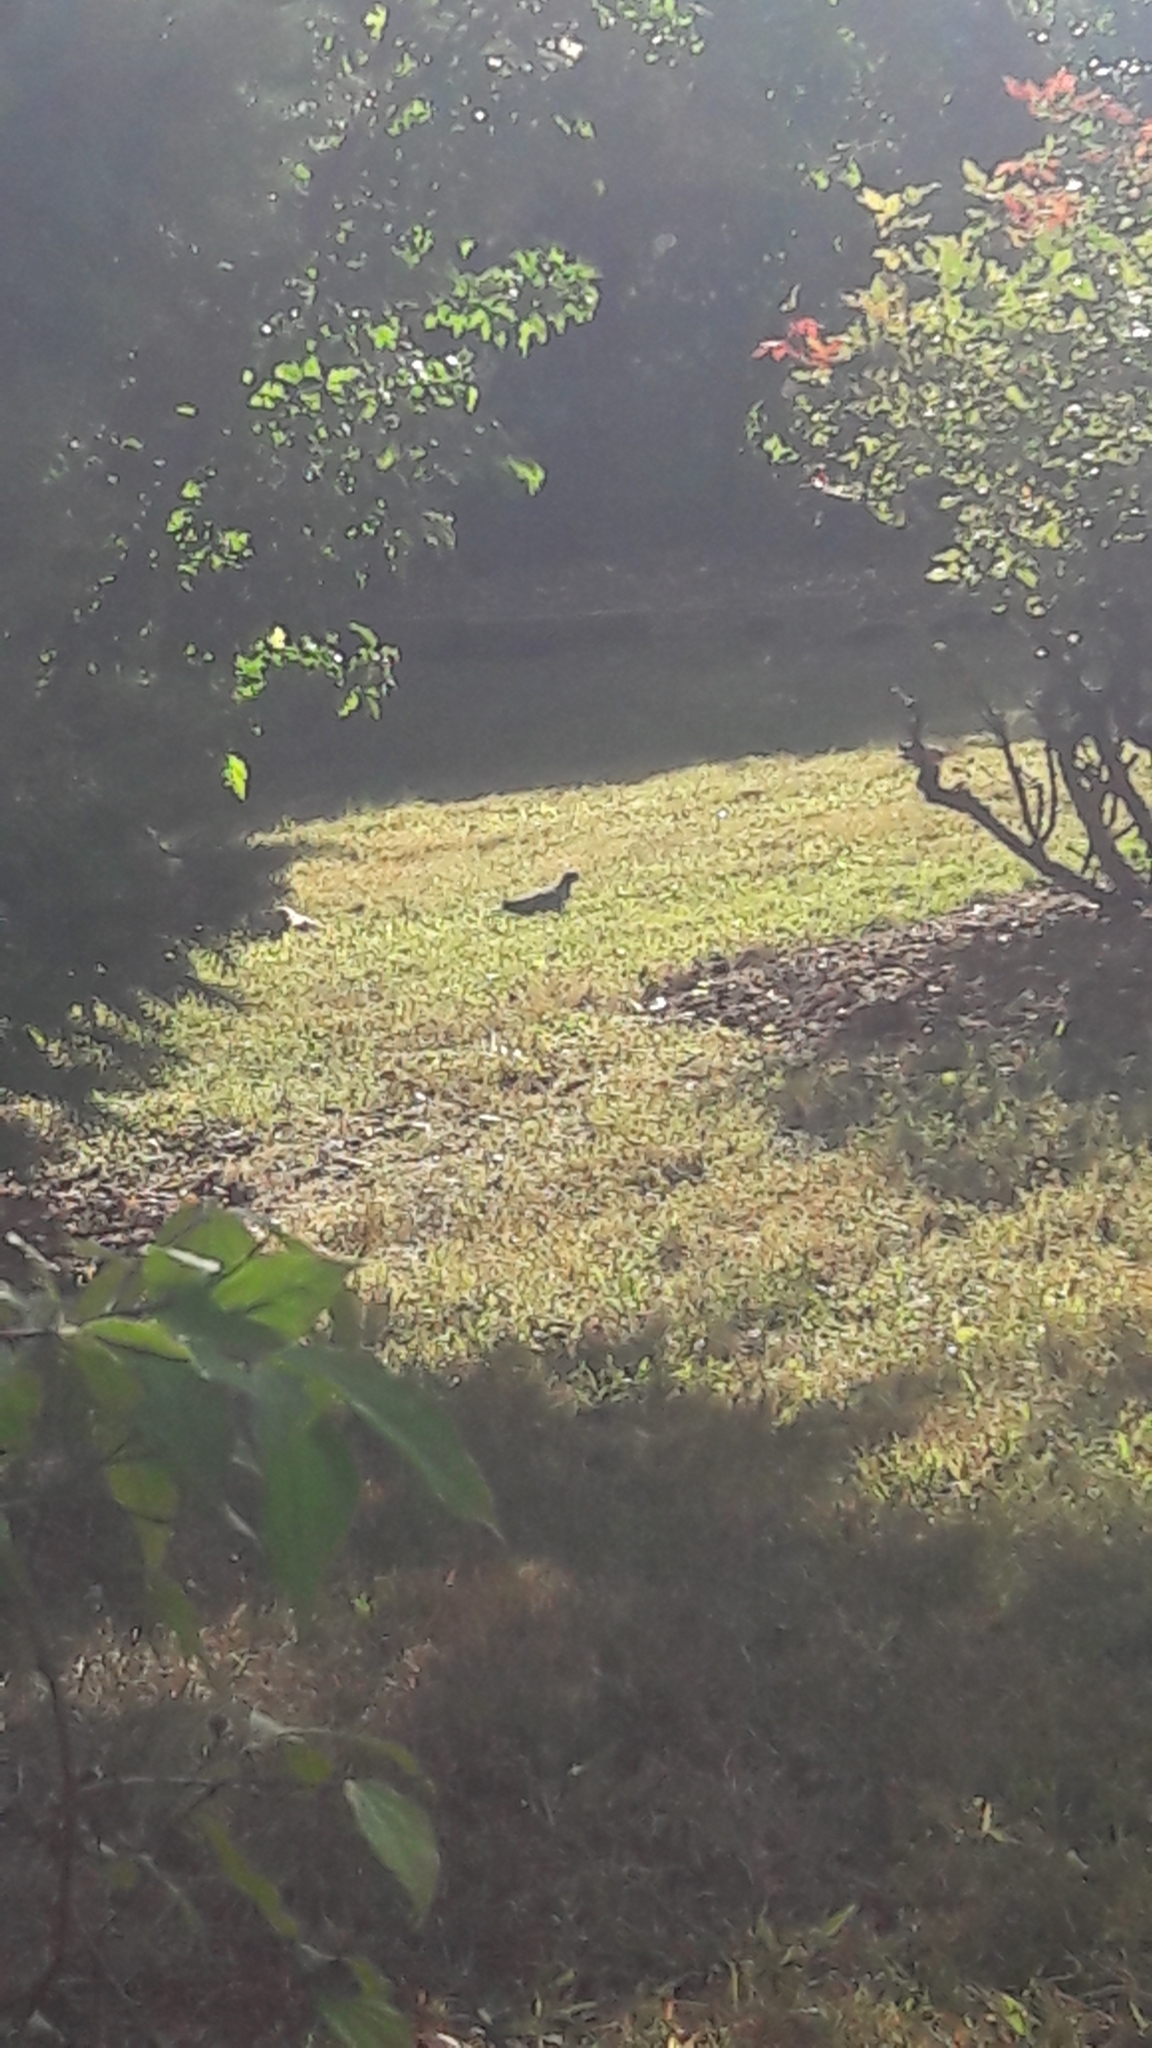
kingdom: Animalia
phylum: Chordata
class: Aves
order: Columbiformes
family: Columbidae
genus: Zenaida
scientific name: Zenaida macroura
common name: Mourning dove
